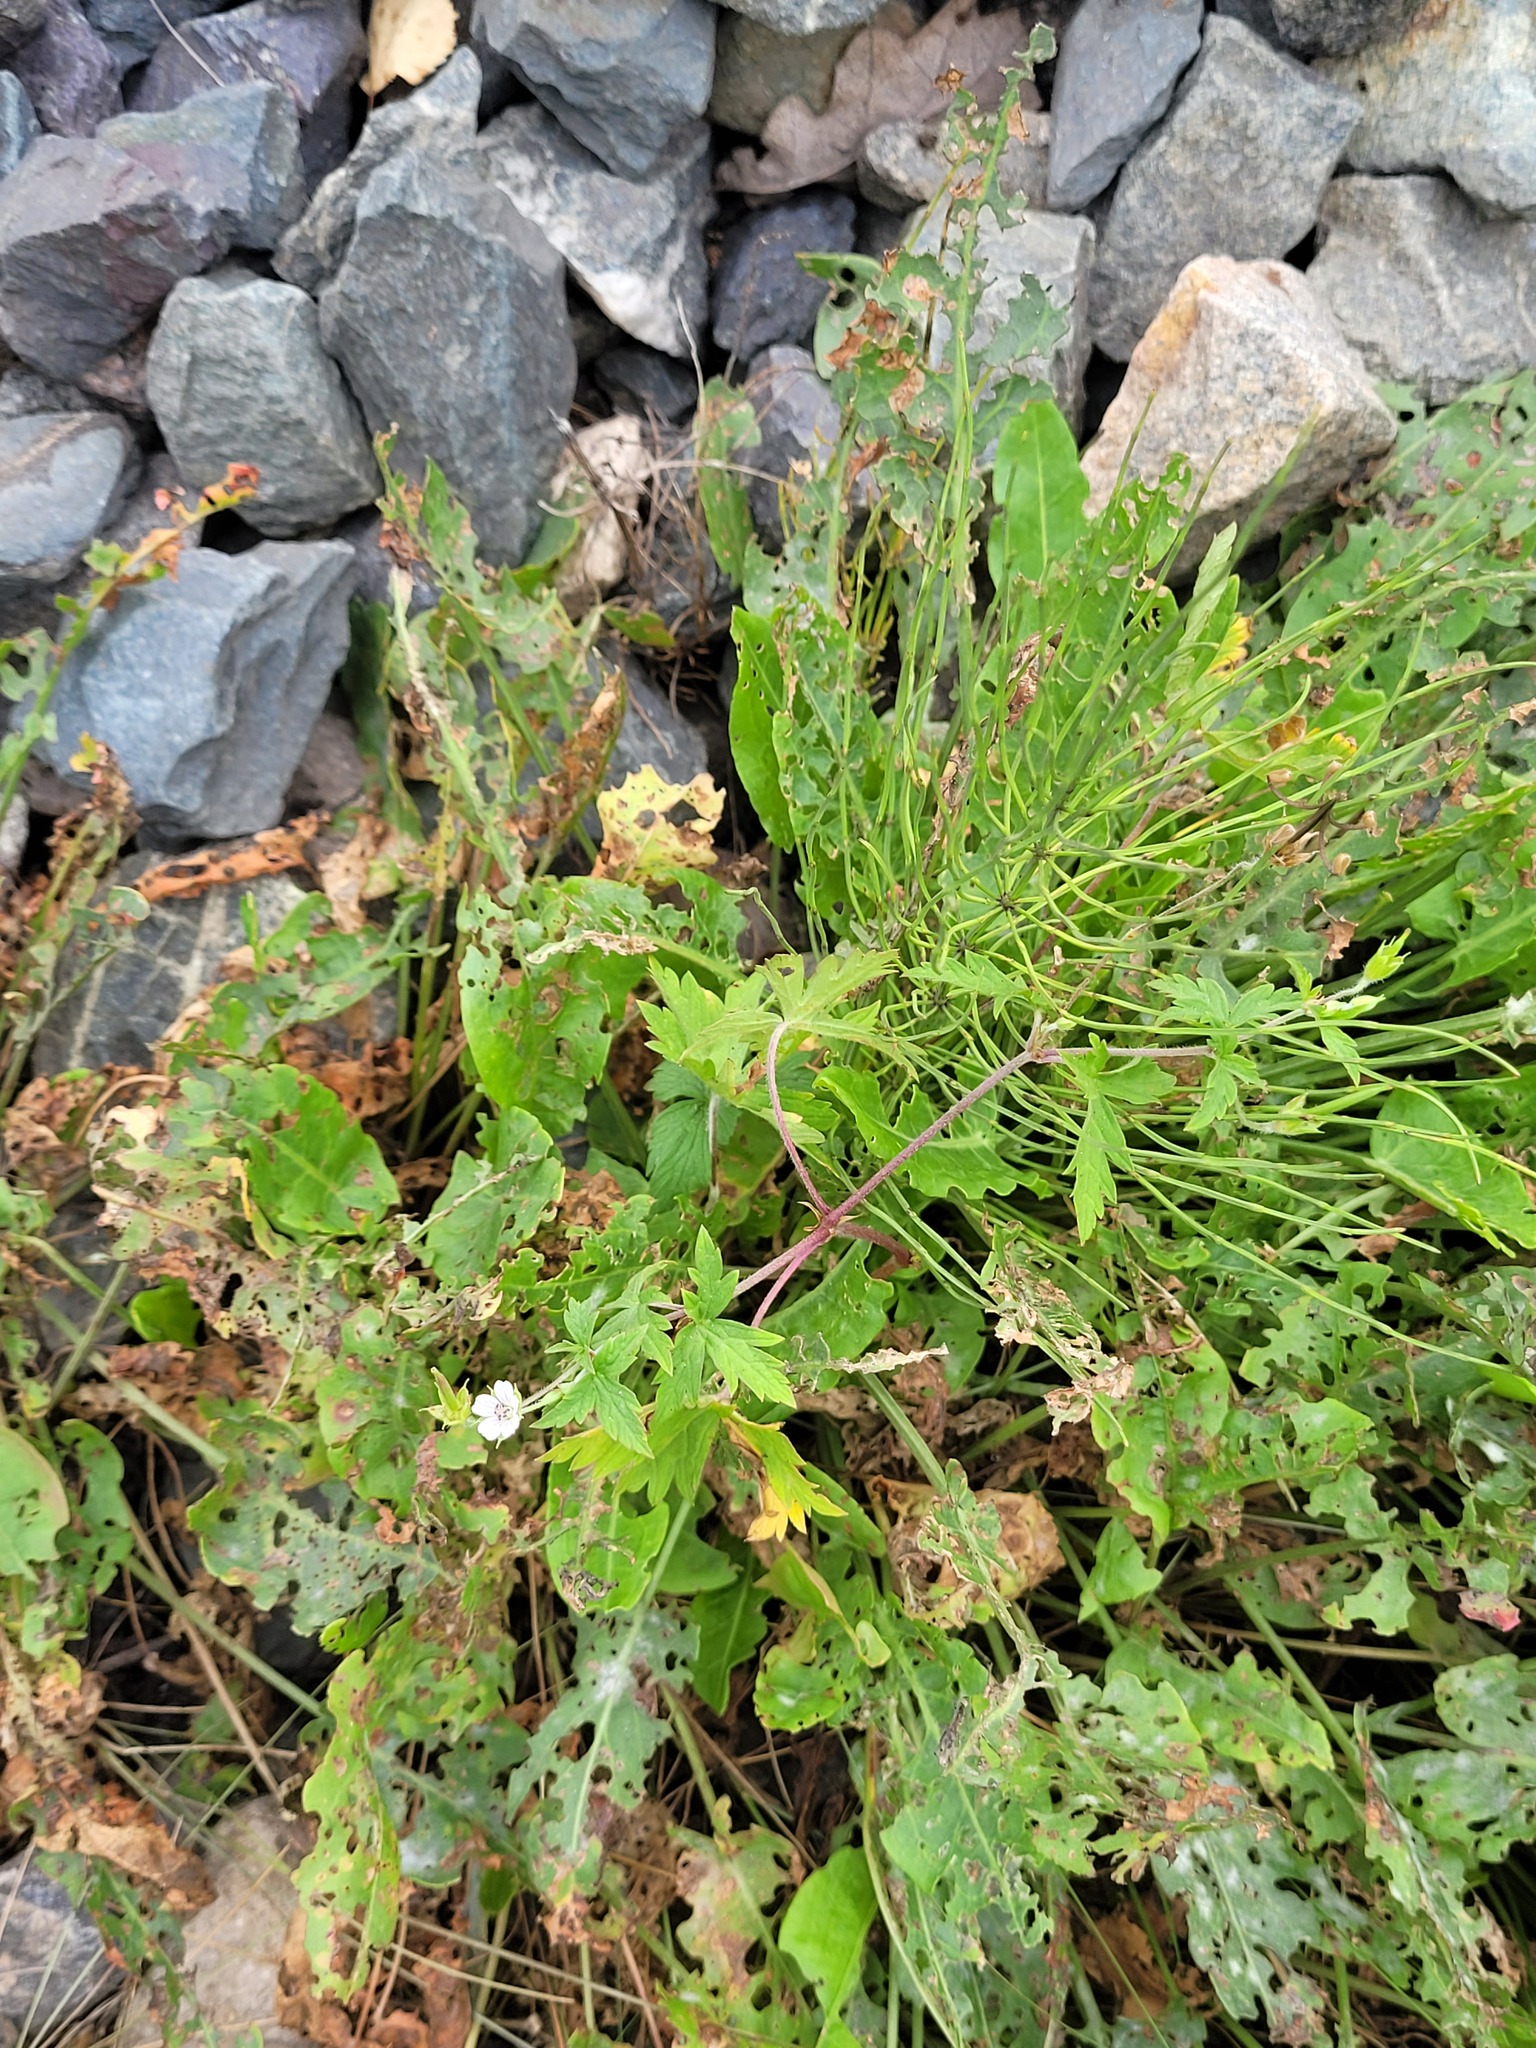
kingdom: Plantae
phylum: Tracheophyta
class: Magnoliopsida
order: Geraniales
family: Geraniaceae
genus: Geranium
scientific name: Geranium sibiricum
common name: Siberian crane's-bill
